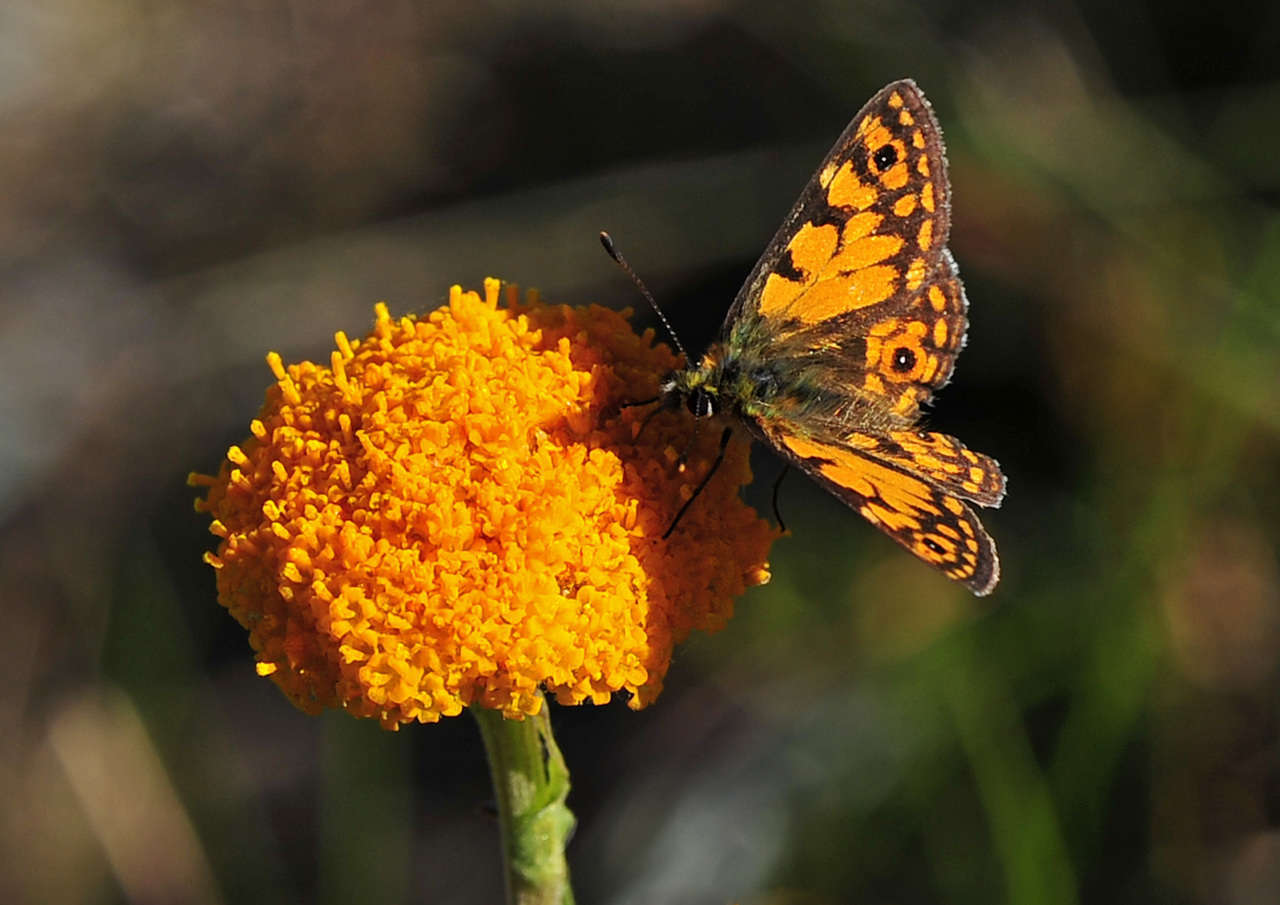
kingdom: Animalia
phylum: Arthropoda
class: Insecta
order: Lepidoptera
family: Nymphalidae
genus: Oreixenica
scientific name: Oreixenica orichora
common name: Orichora brown
